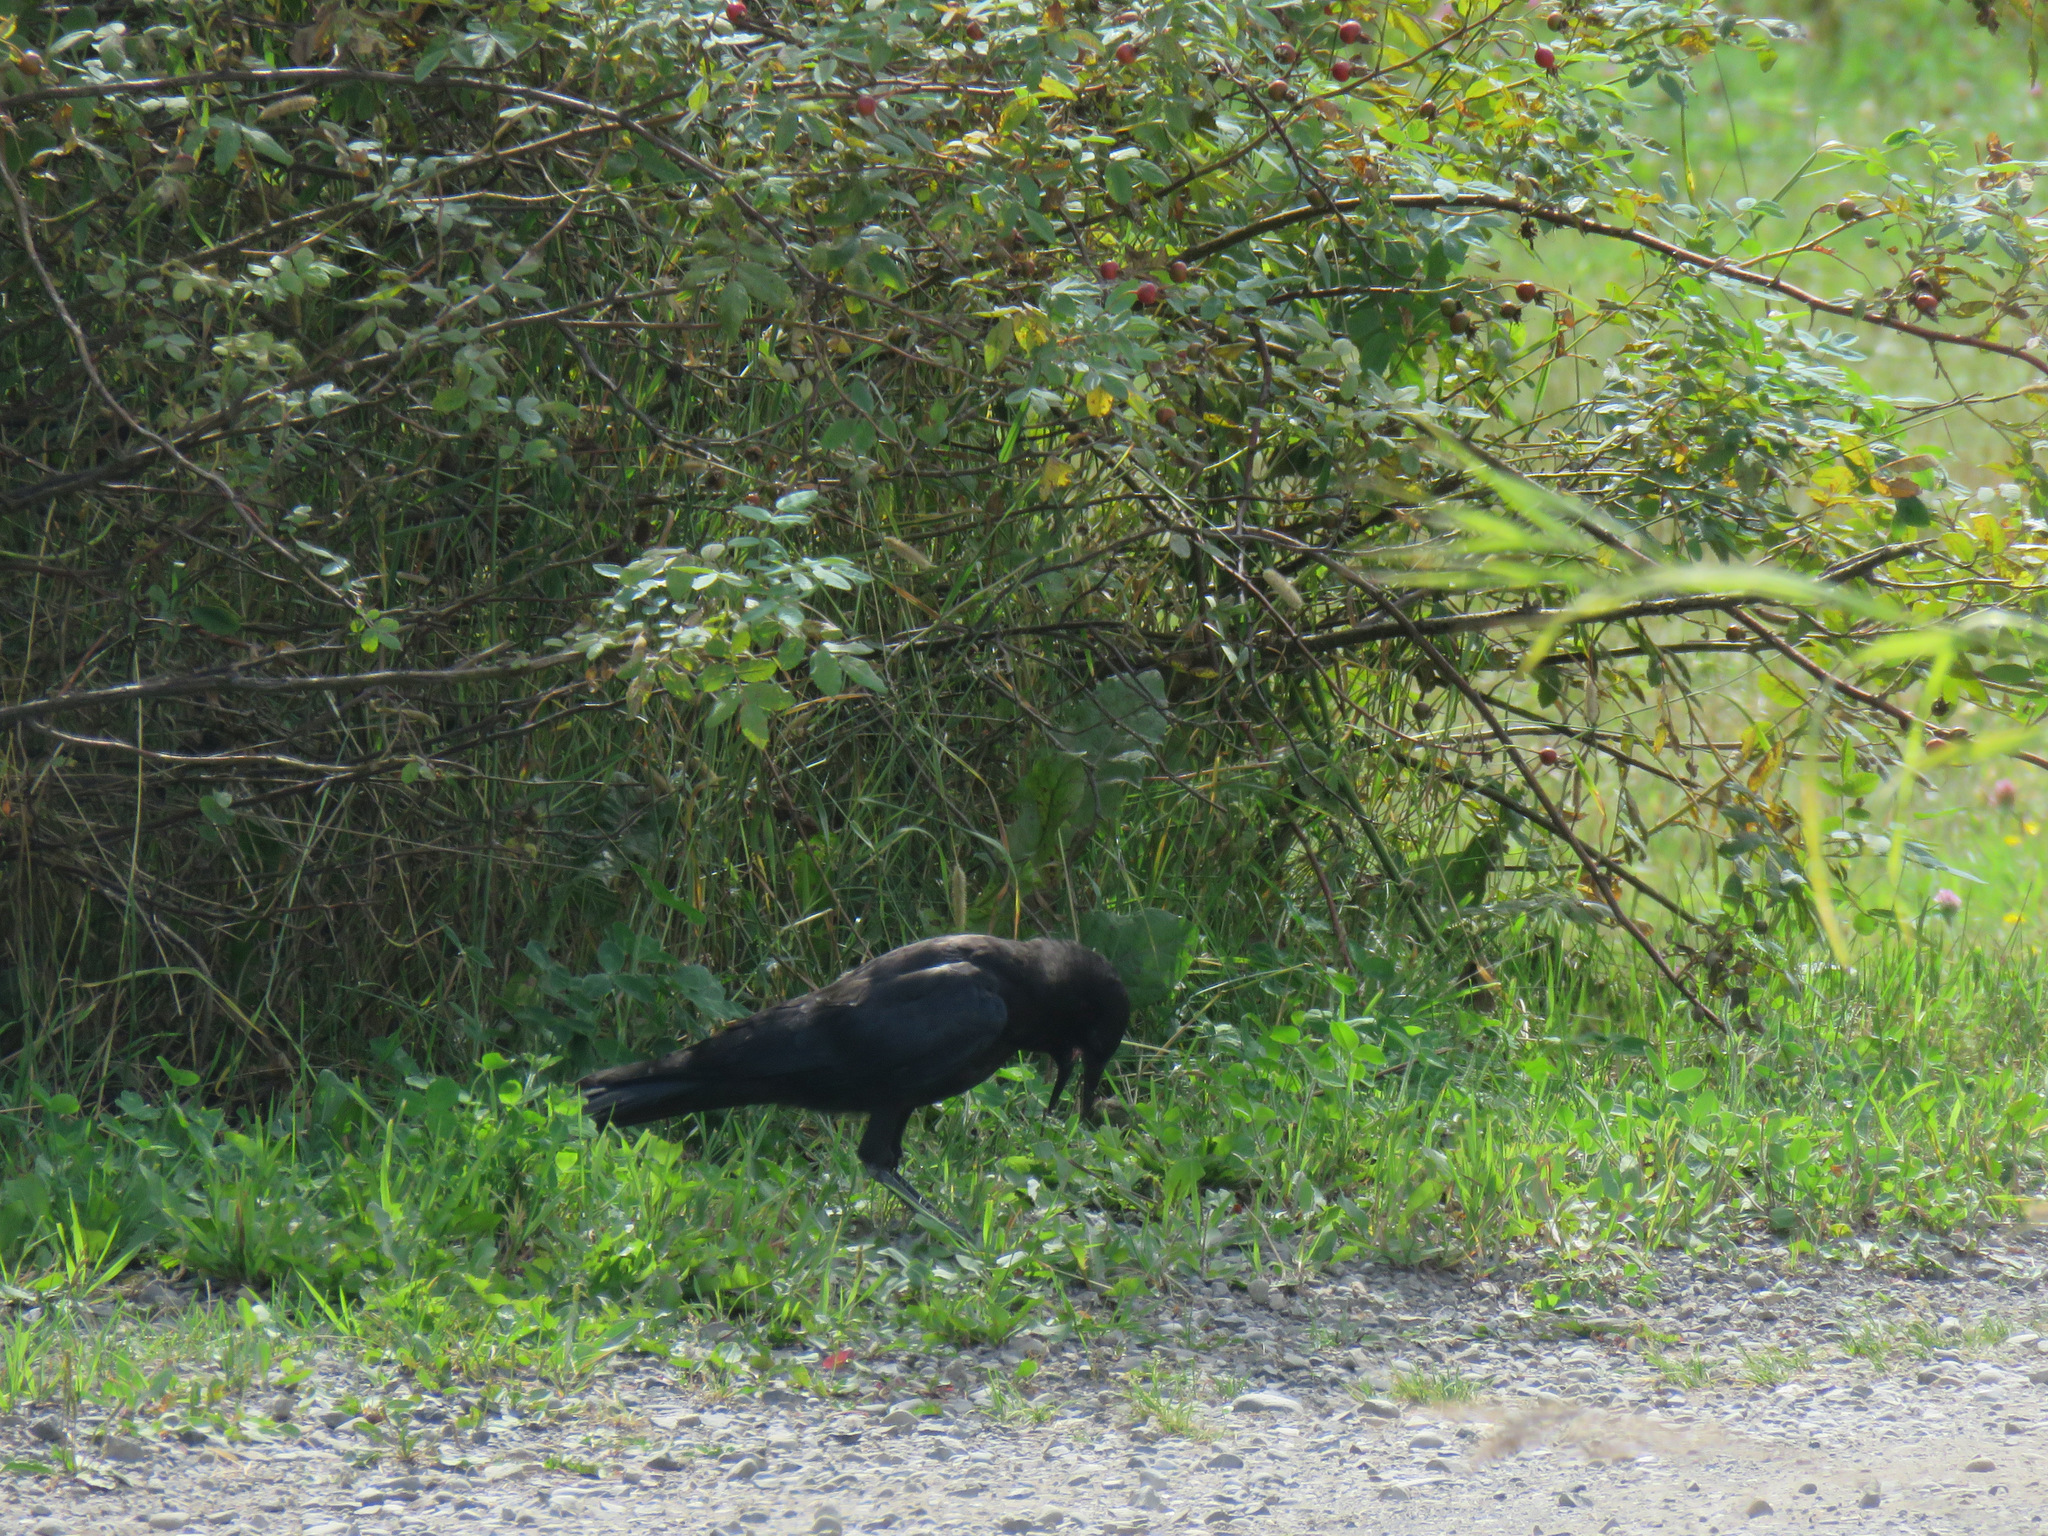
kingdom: Animalia
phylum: Chordata
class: Aves
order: Passeriformes
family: Corvidae
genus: Corvus
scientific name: Corvus brachyrhynchos
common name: American crow
